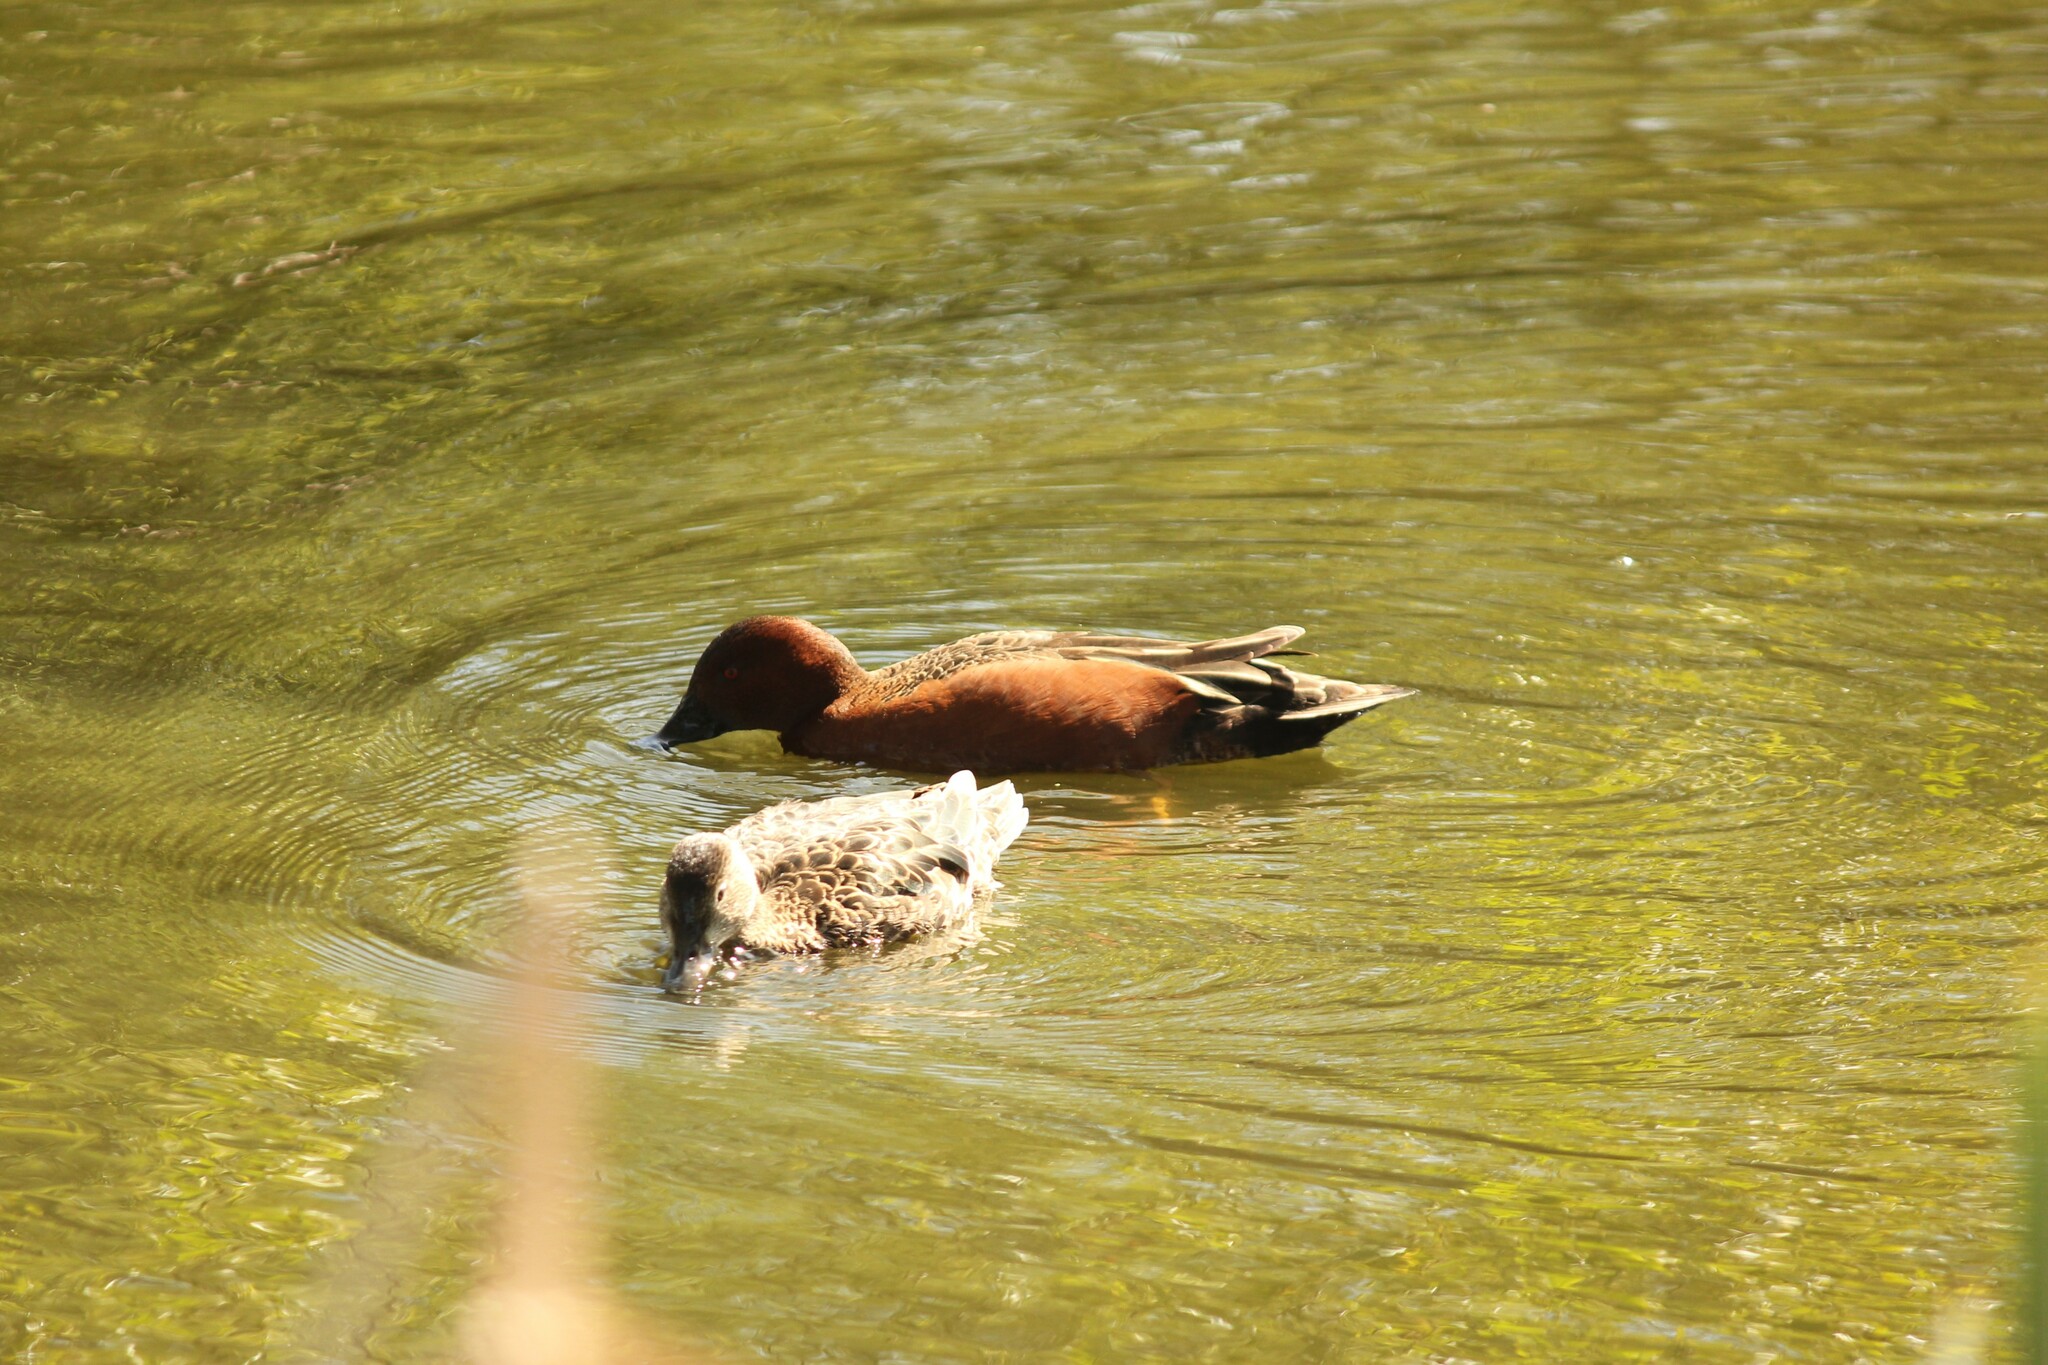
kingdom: Animalia
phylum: Chordata
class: Aves
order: Anseriformes
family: Anatidae
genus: Spatula
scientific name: Spatula cyanoptera
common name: Cinnamon teal
